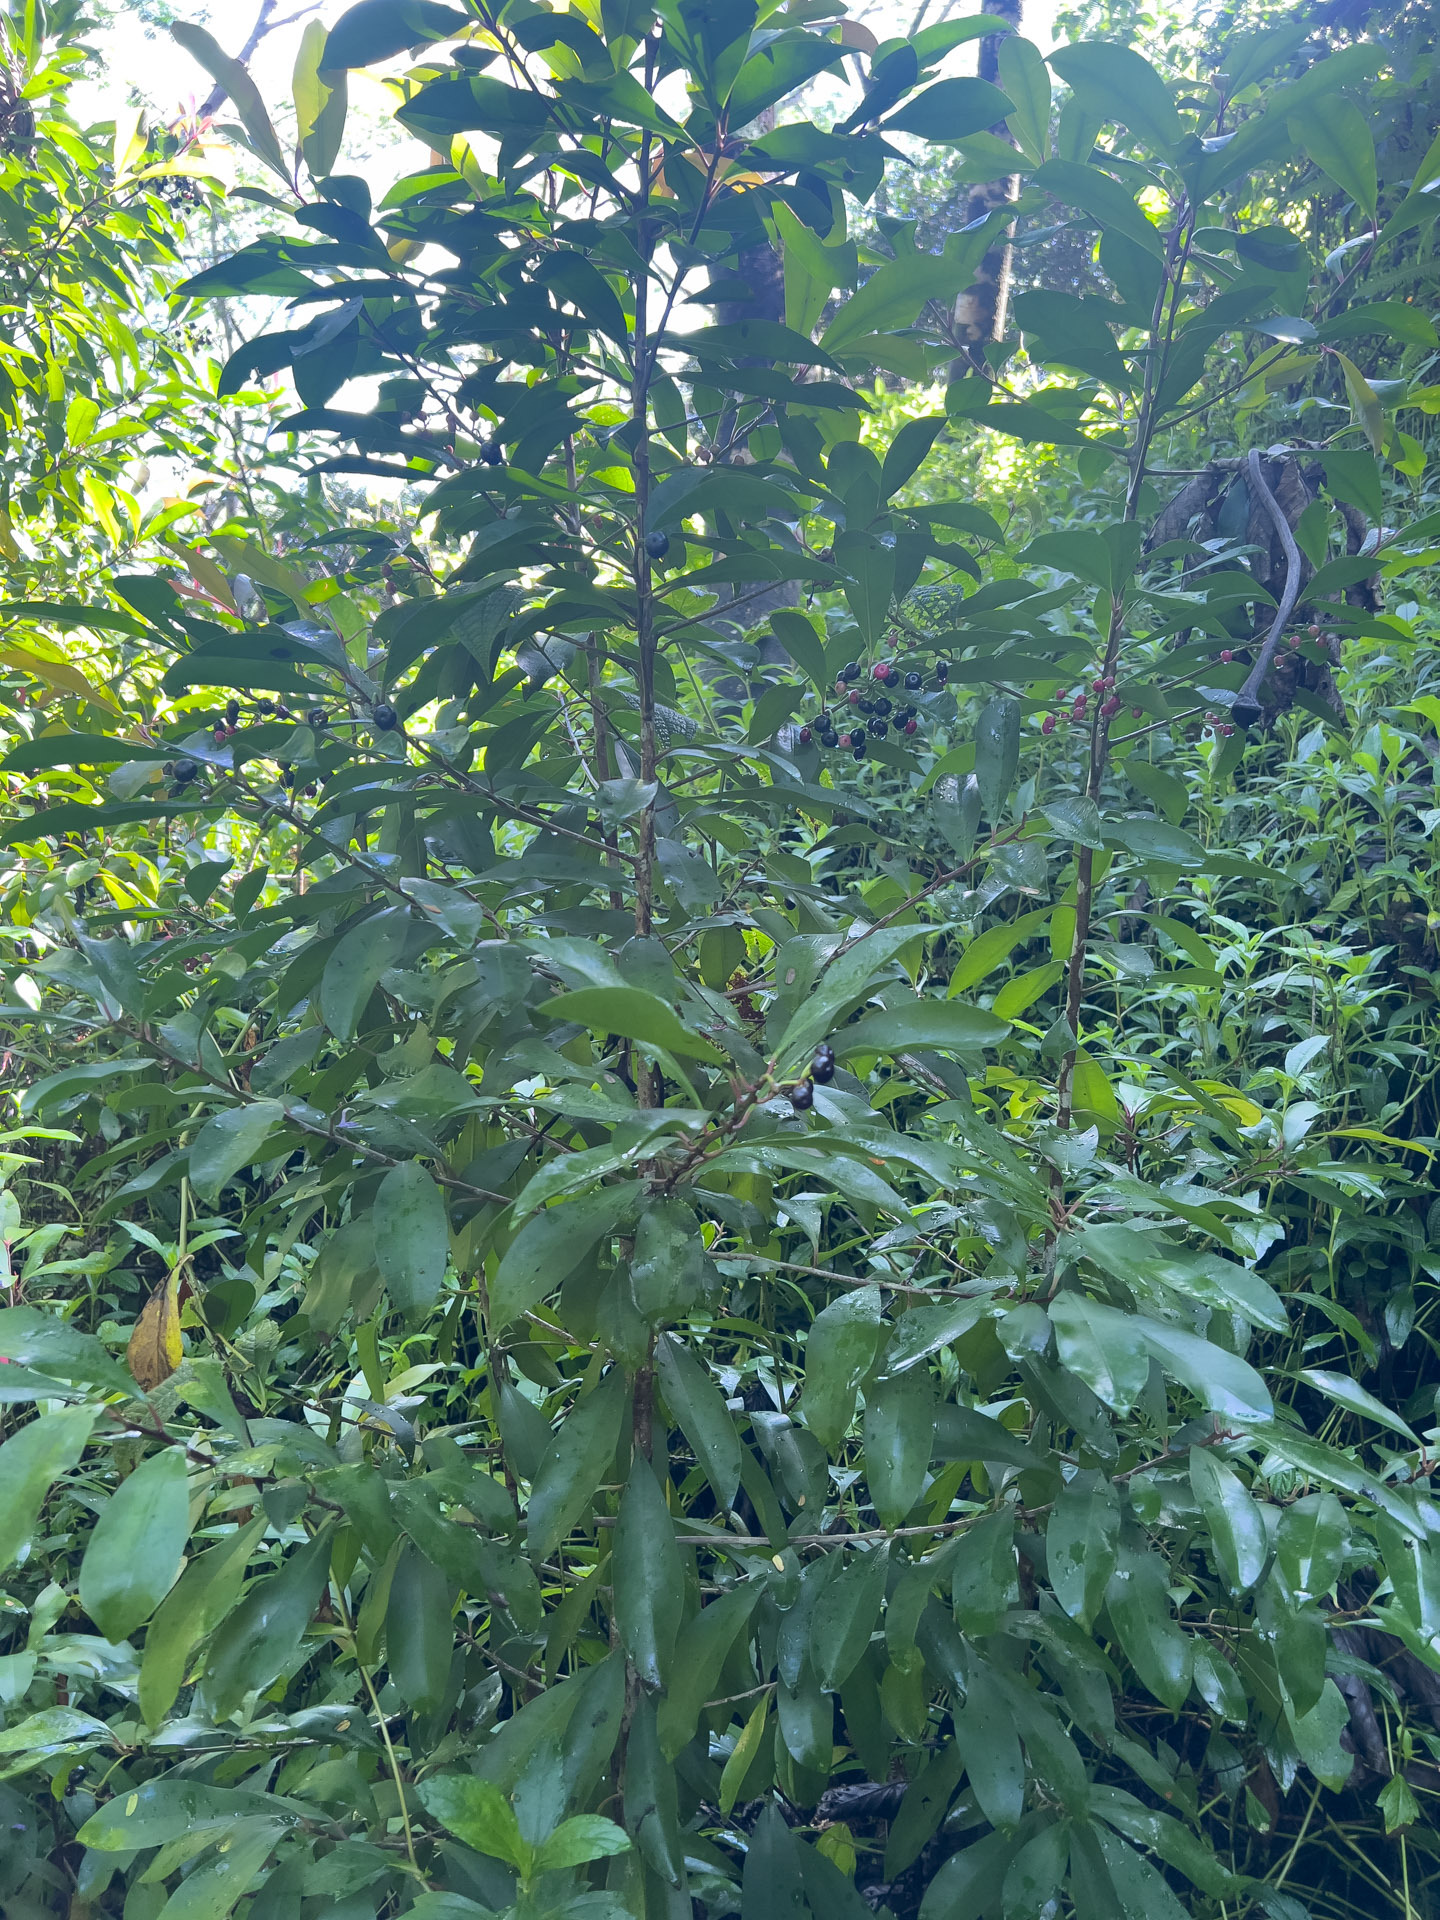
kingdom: Plantae
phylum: Tracheophyta
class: Magnoliopsida
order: Ericales
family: Primulaceae
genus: Ardisia
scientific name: Ardisia elliptica
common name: Shoebutton
